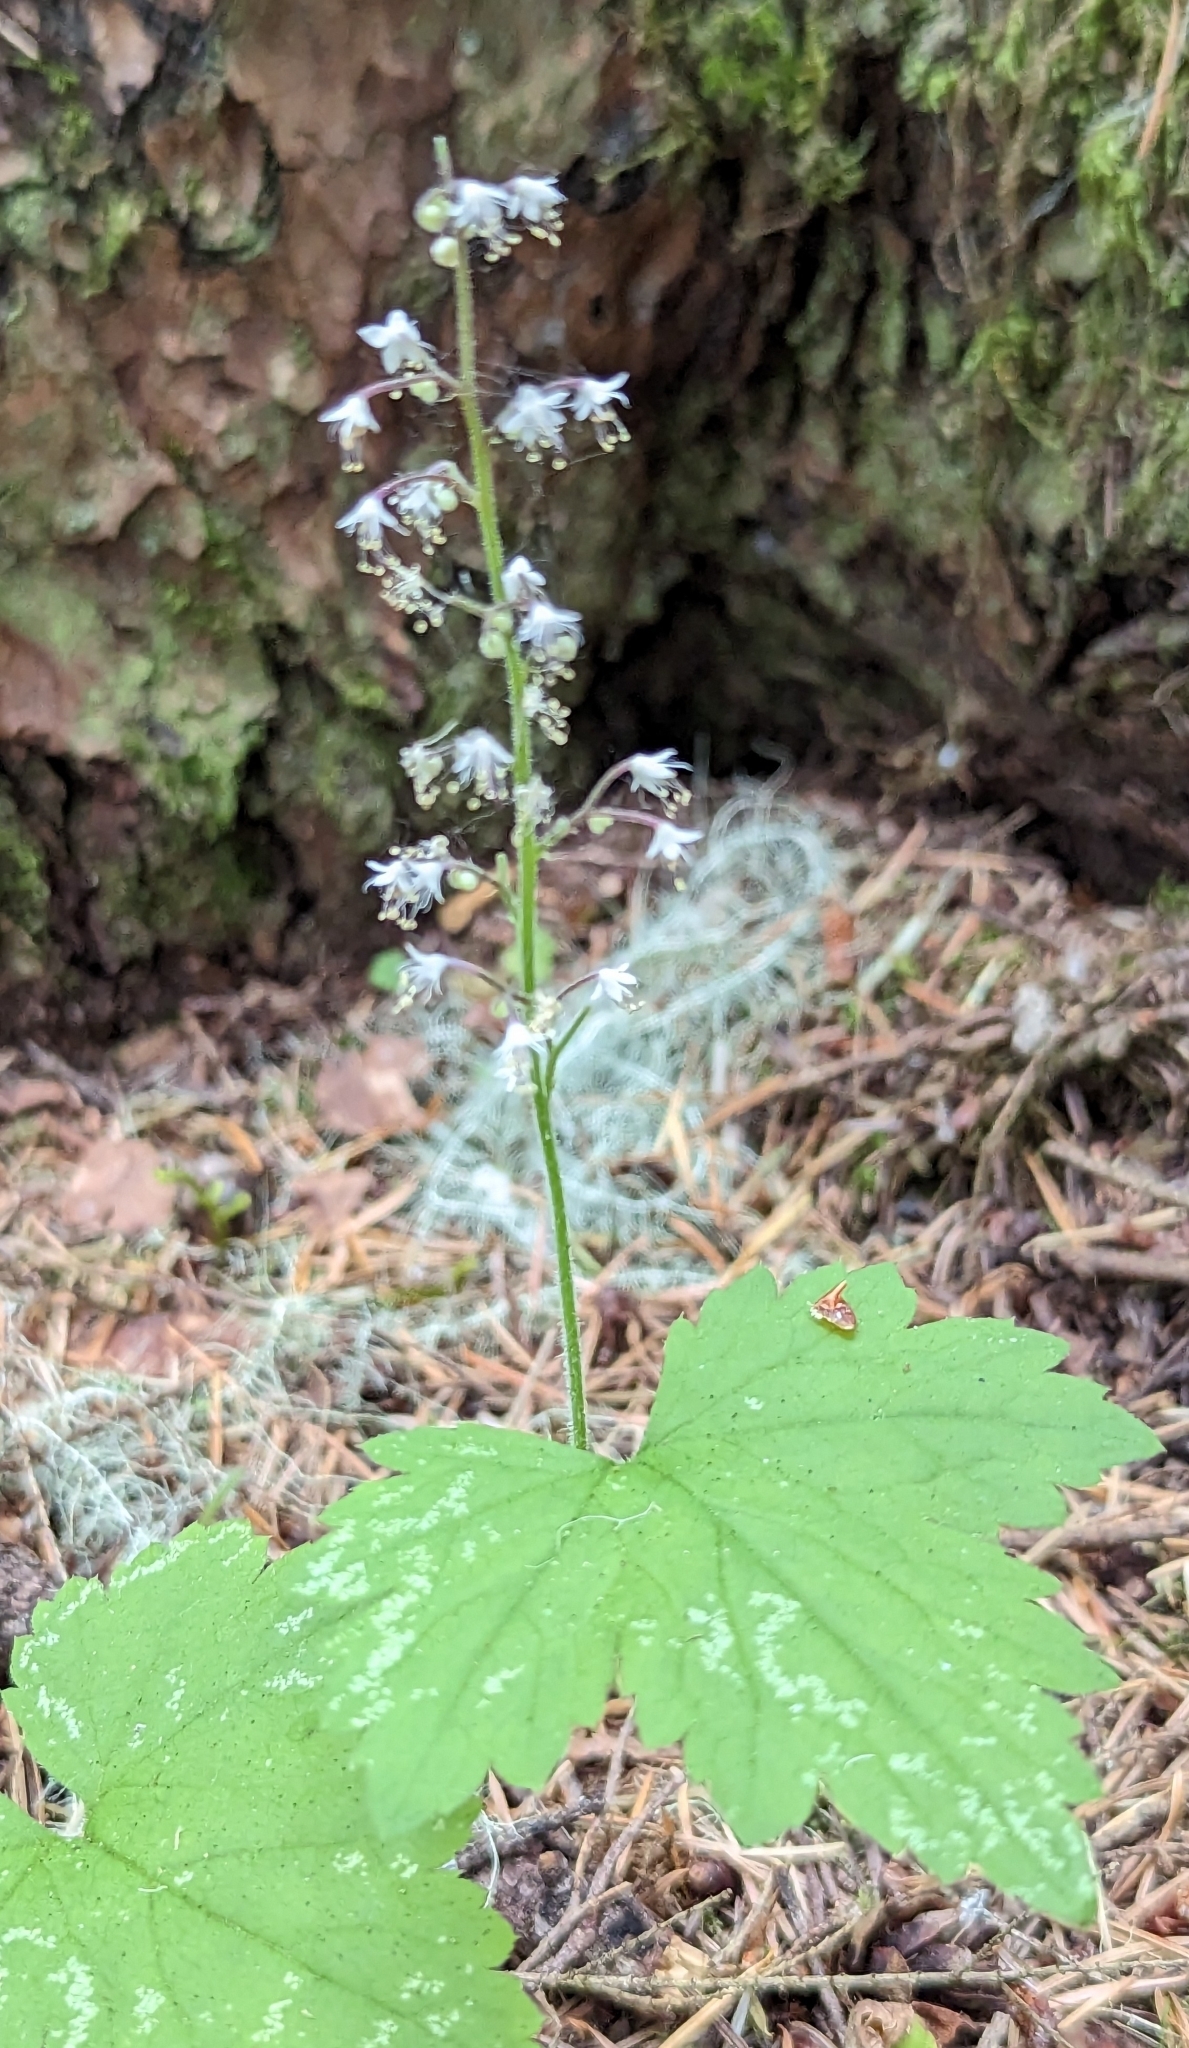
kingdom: Plantae
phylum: Tracheophyta
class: Magnoliopsida
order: Saxifragales
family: Saxifragaceae
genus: Tiarella
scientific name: Tiarella trifoliata
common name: Sugar-scoop
